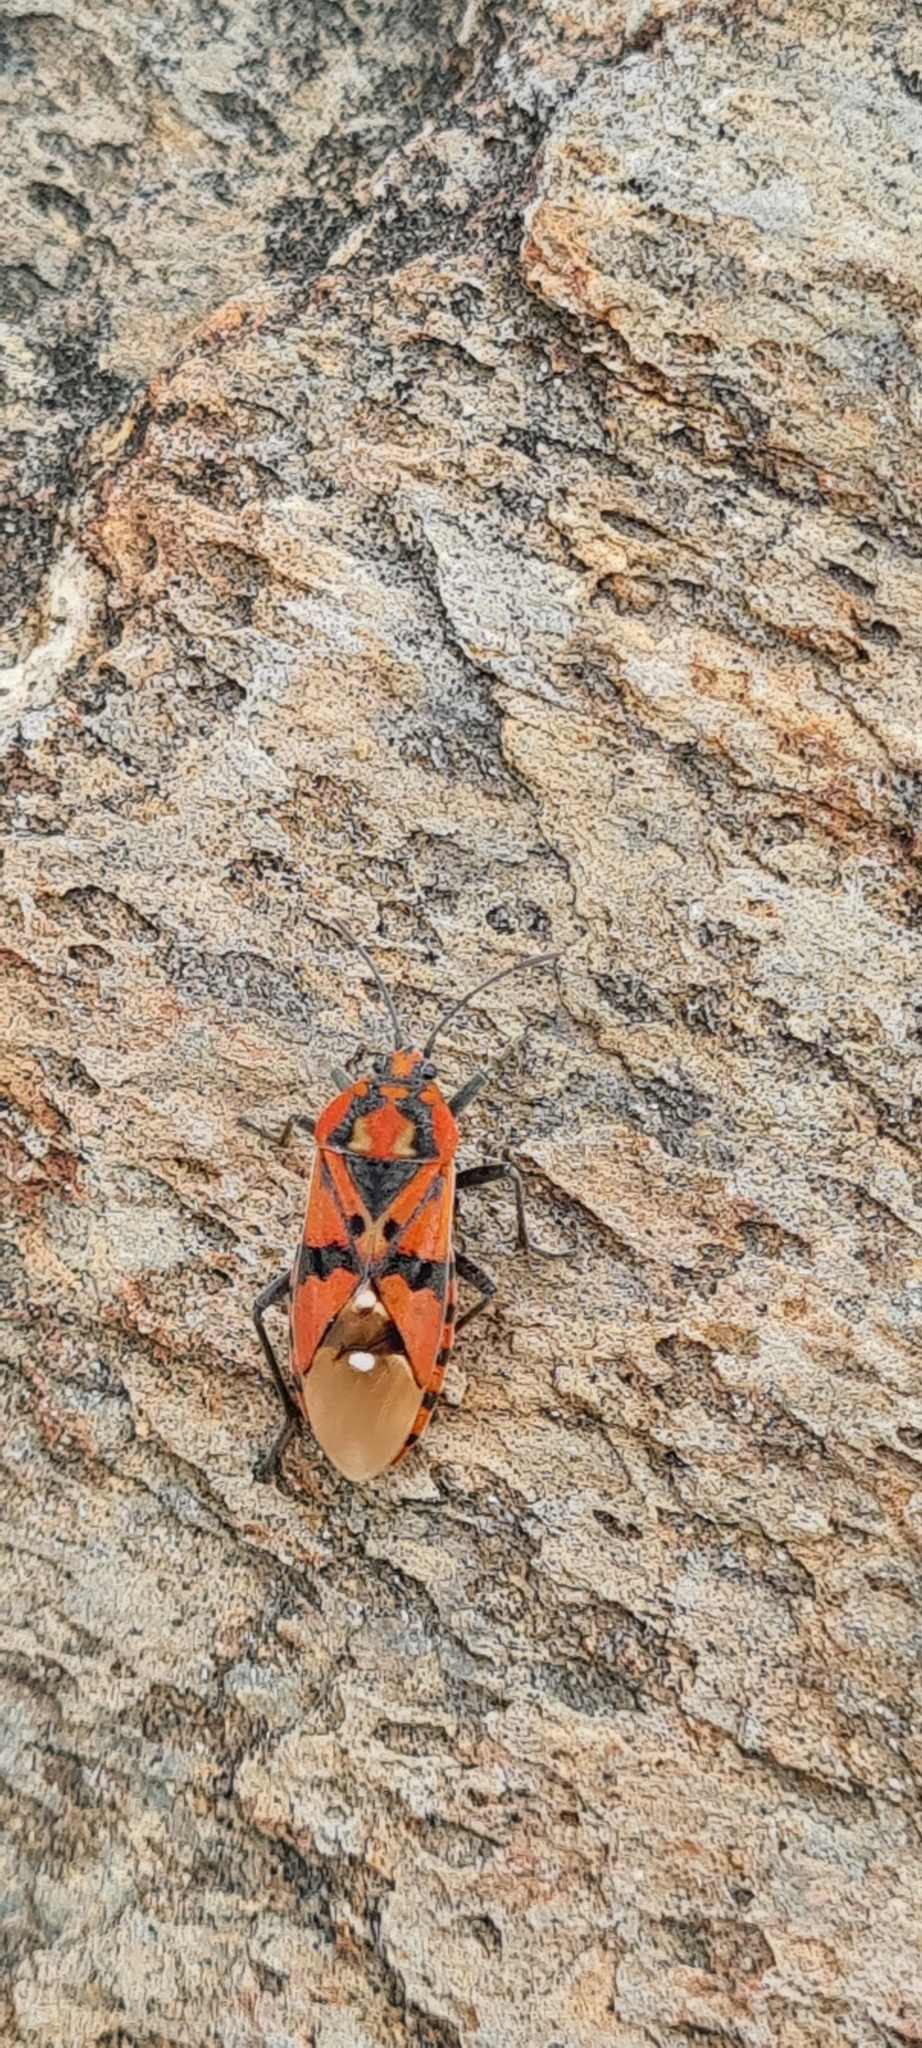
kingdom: Animalia
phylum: Arthropoda
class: Insecta
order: Hemiptera
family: Lygaeidae
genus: Spilostethus
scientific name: Spilostethus pandurus
